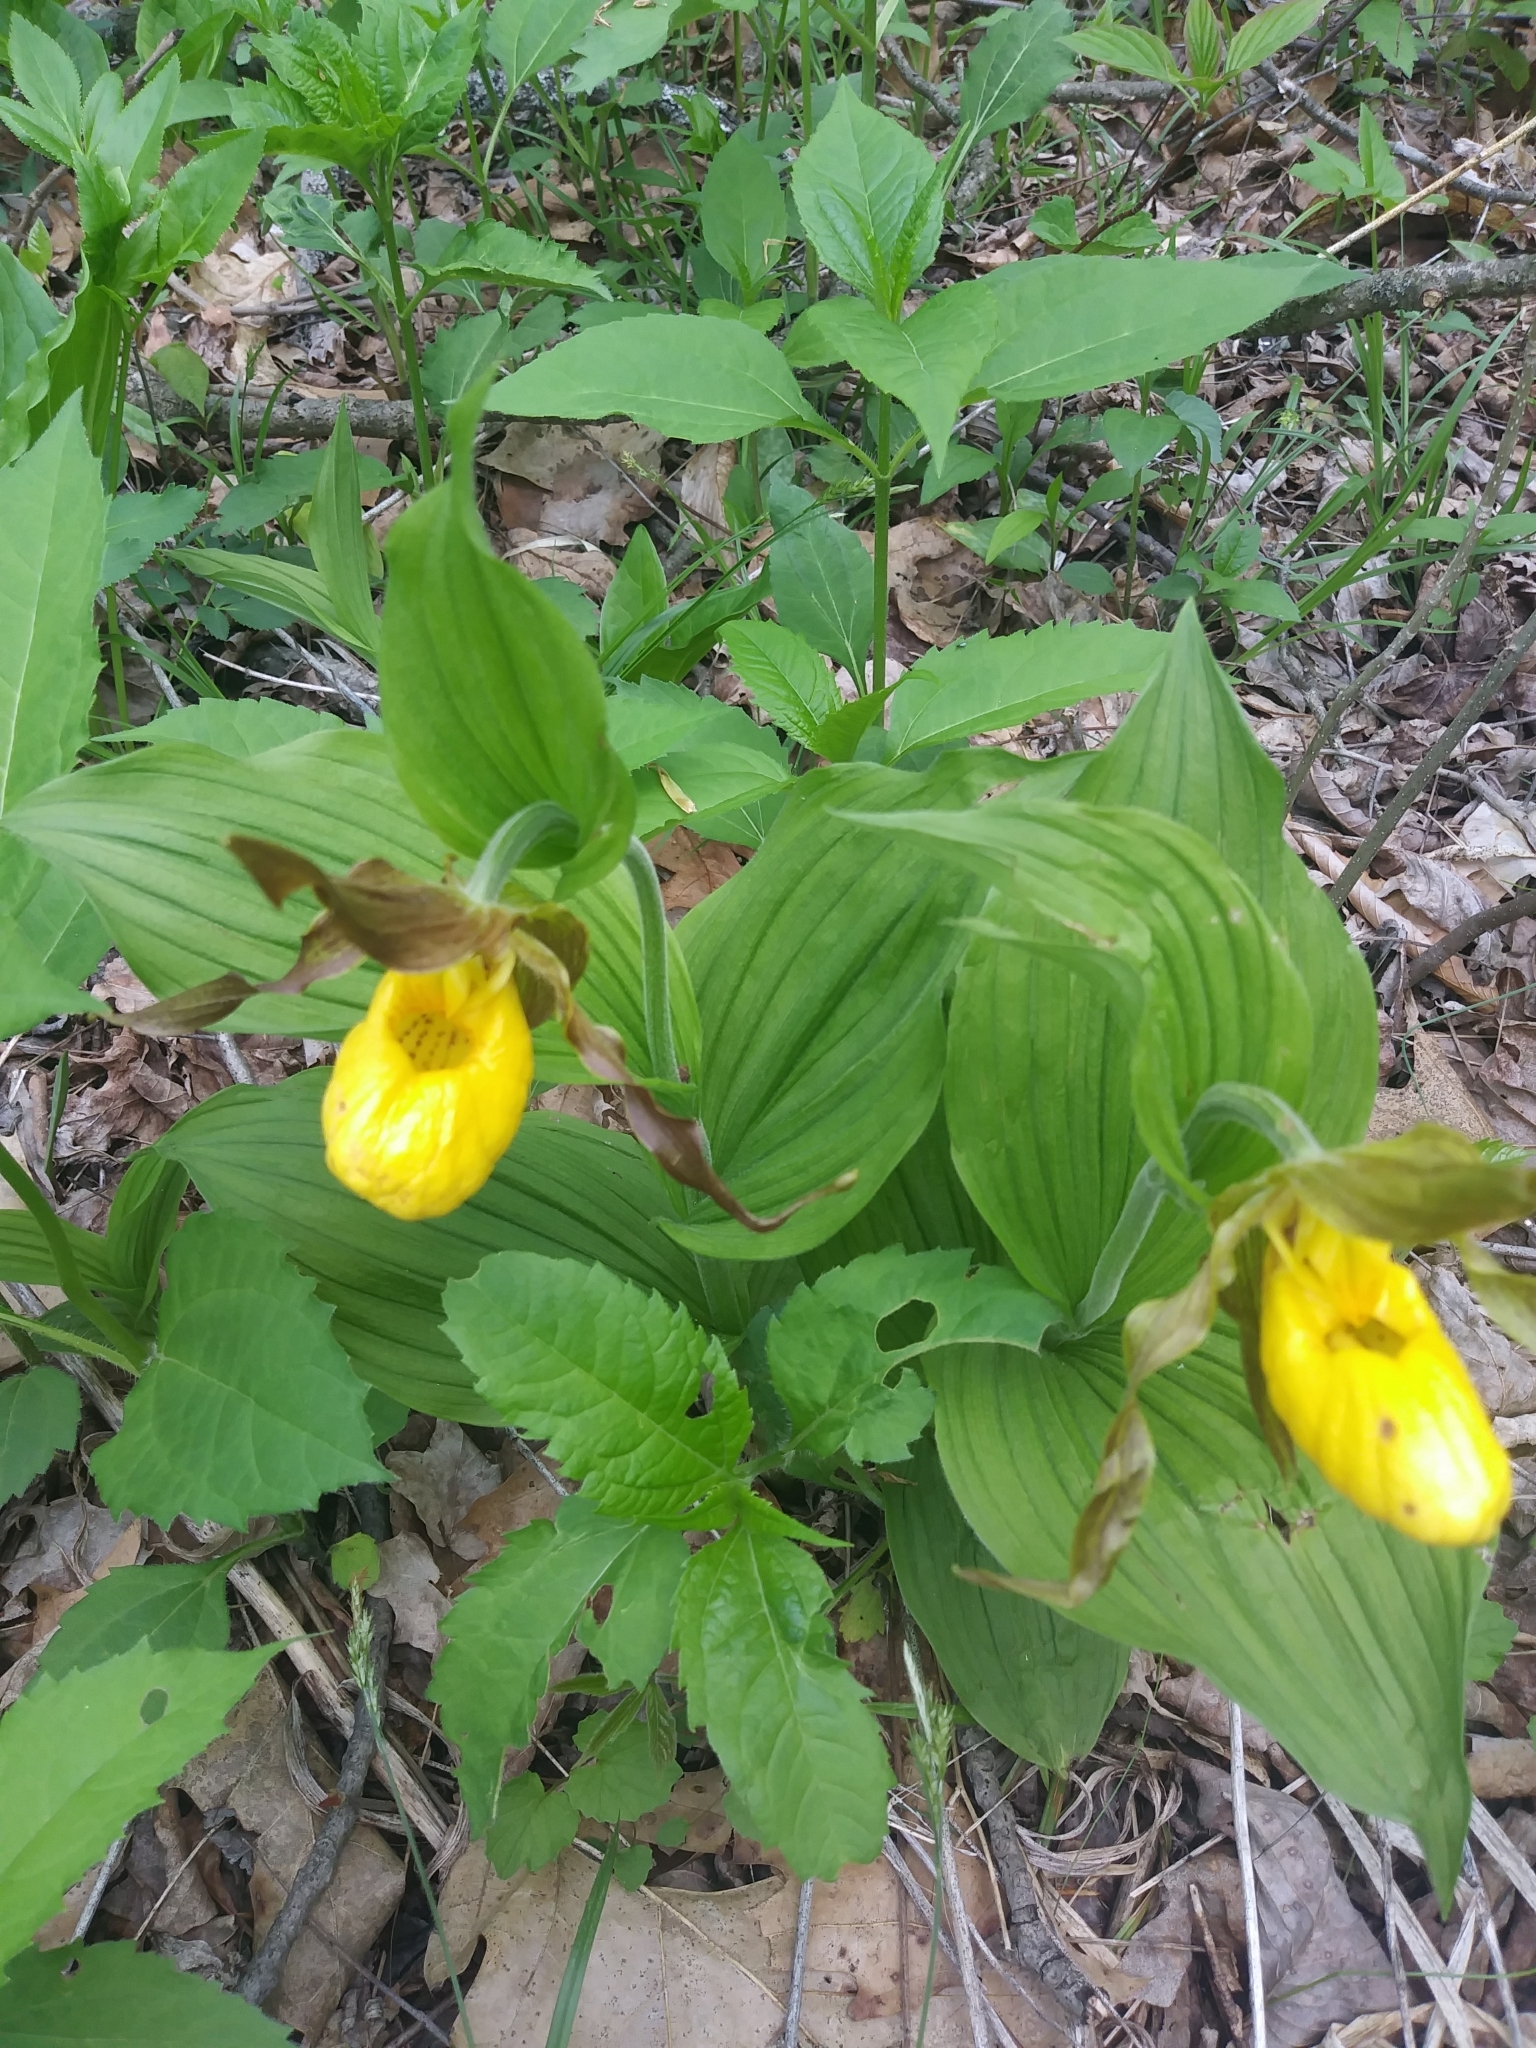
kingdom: Plantae
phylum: Tracheophyta
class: Liliopsida
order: Asparagales
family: Orchidaceae
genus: Cypripedium
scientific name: Cypripedium parviflorum
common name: American yellow lady's-slipper
